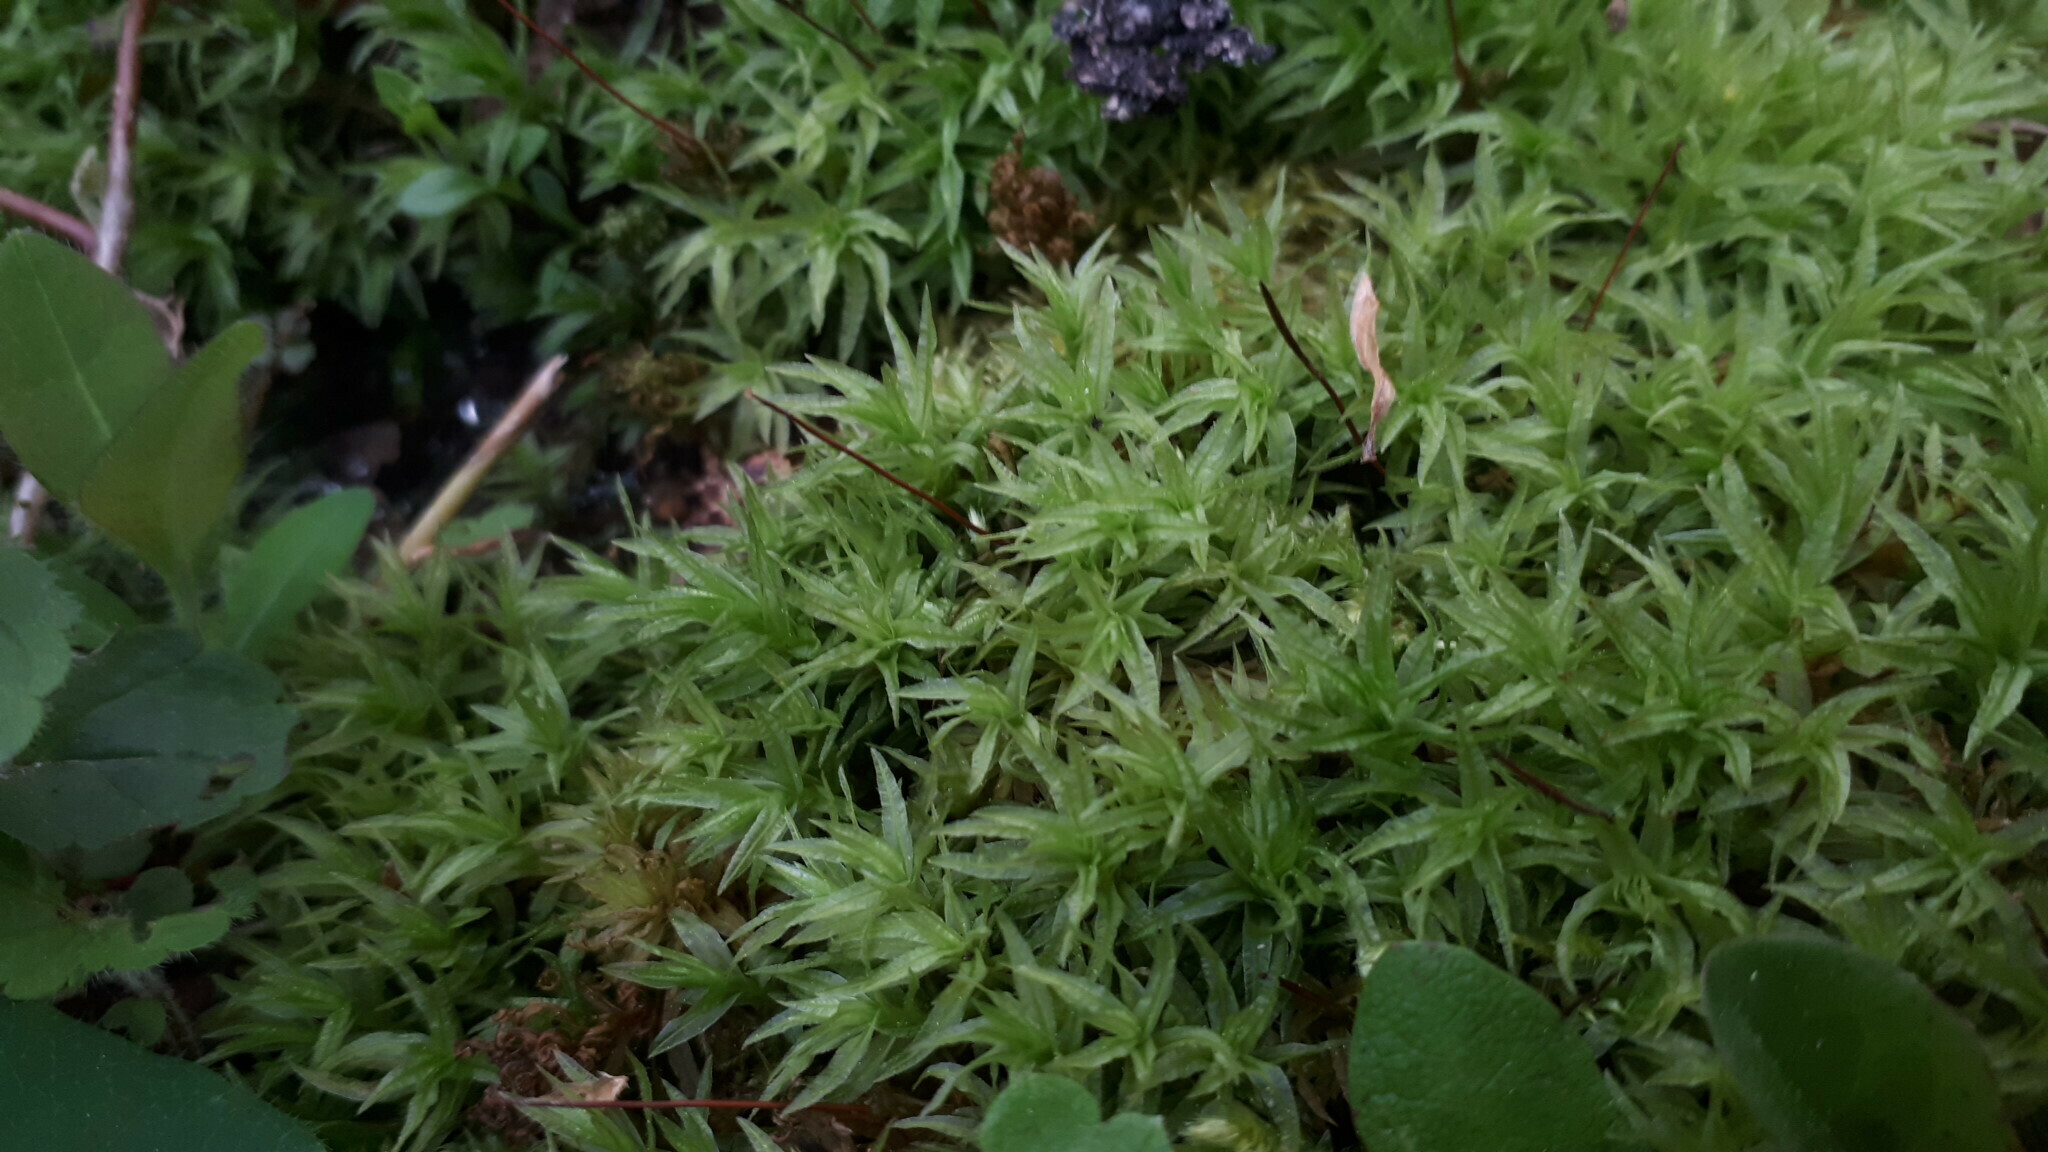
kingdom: Plantae
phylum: Bryophyta
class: Polytrichopsida
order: Polytrichales
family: Polytrichaceae
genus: Atrichum
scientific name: Atrichum undulatum
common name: Common smoothcap
